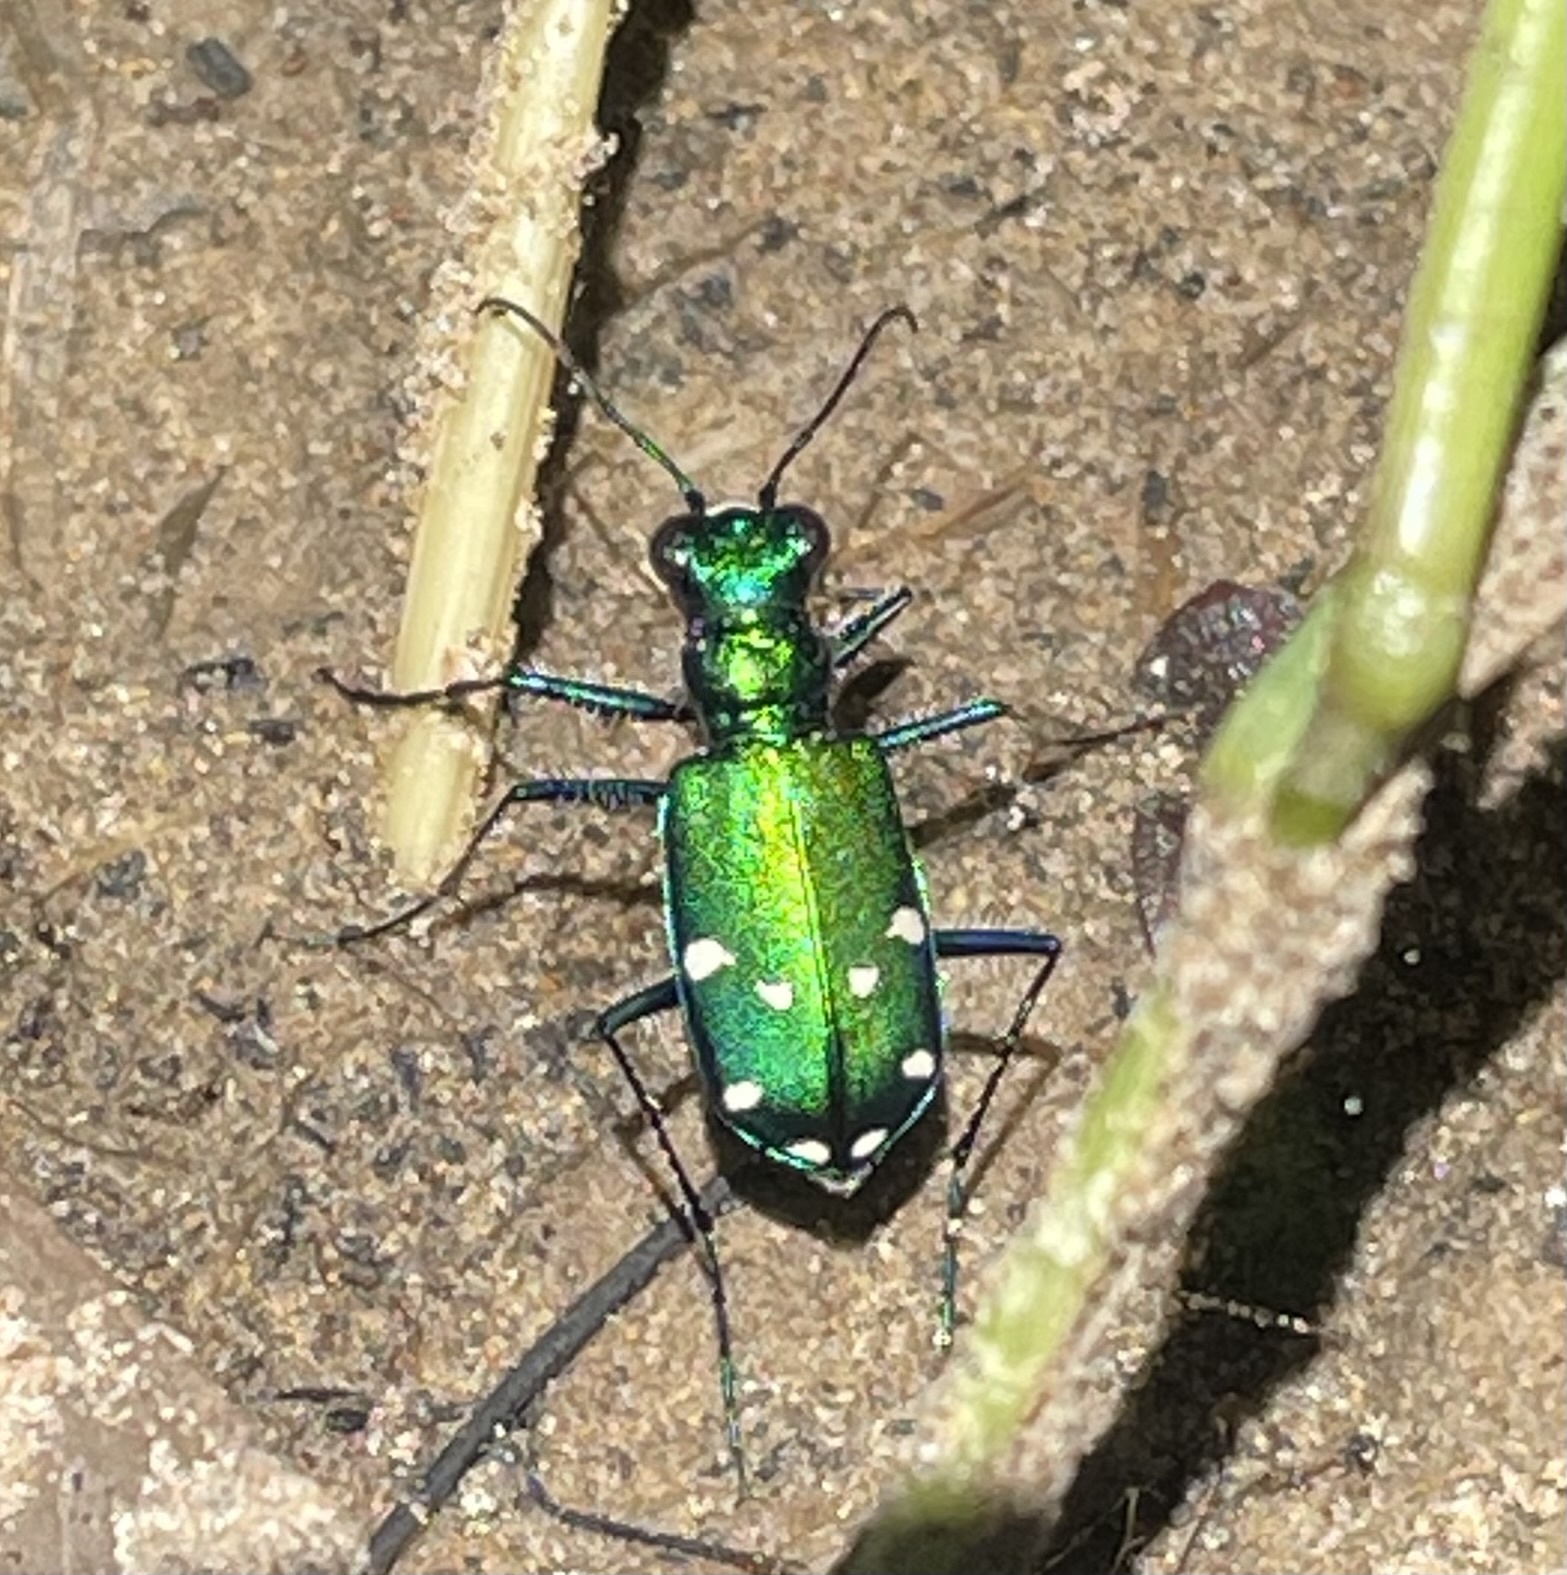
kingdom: Animalia
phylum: Arthropoda
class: Insecta
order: Coleoptera
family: Carabidae
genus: Cicindela
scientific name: Cicindela sexguttata
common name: Six-spotted tiger beetle
